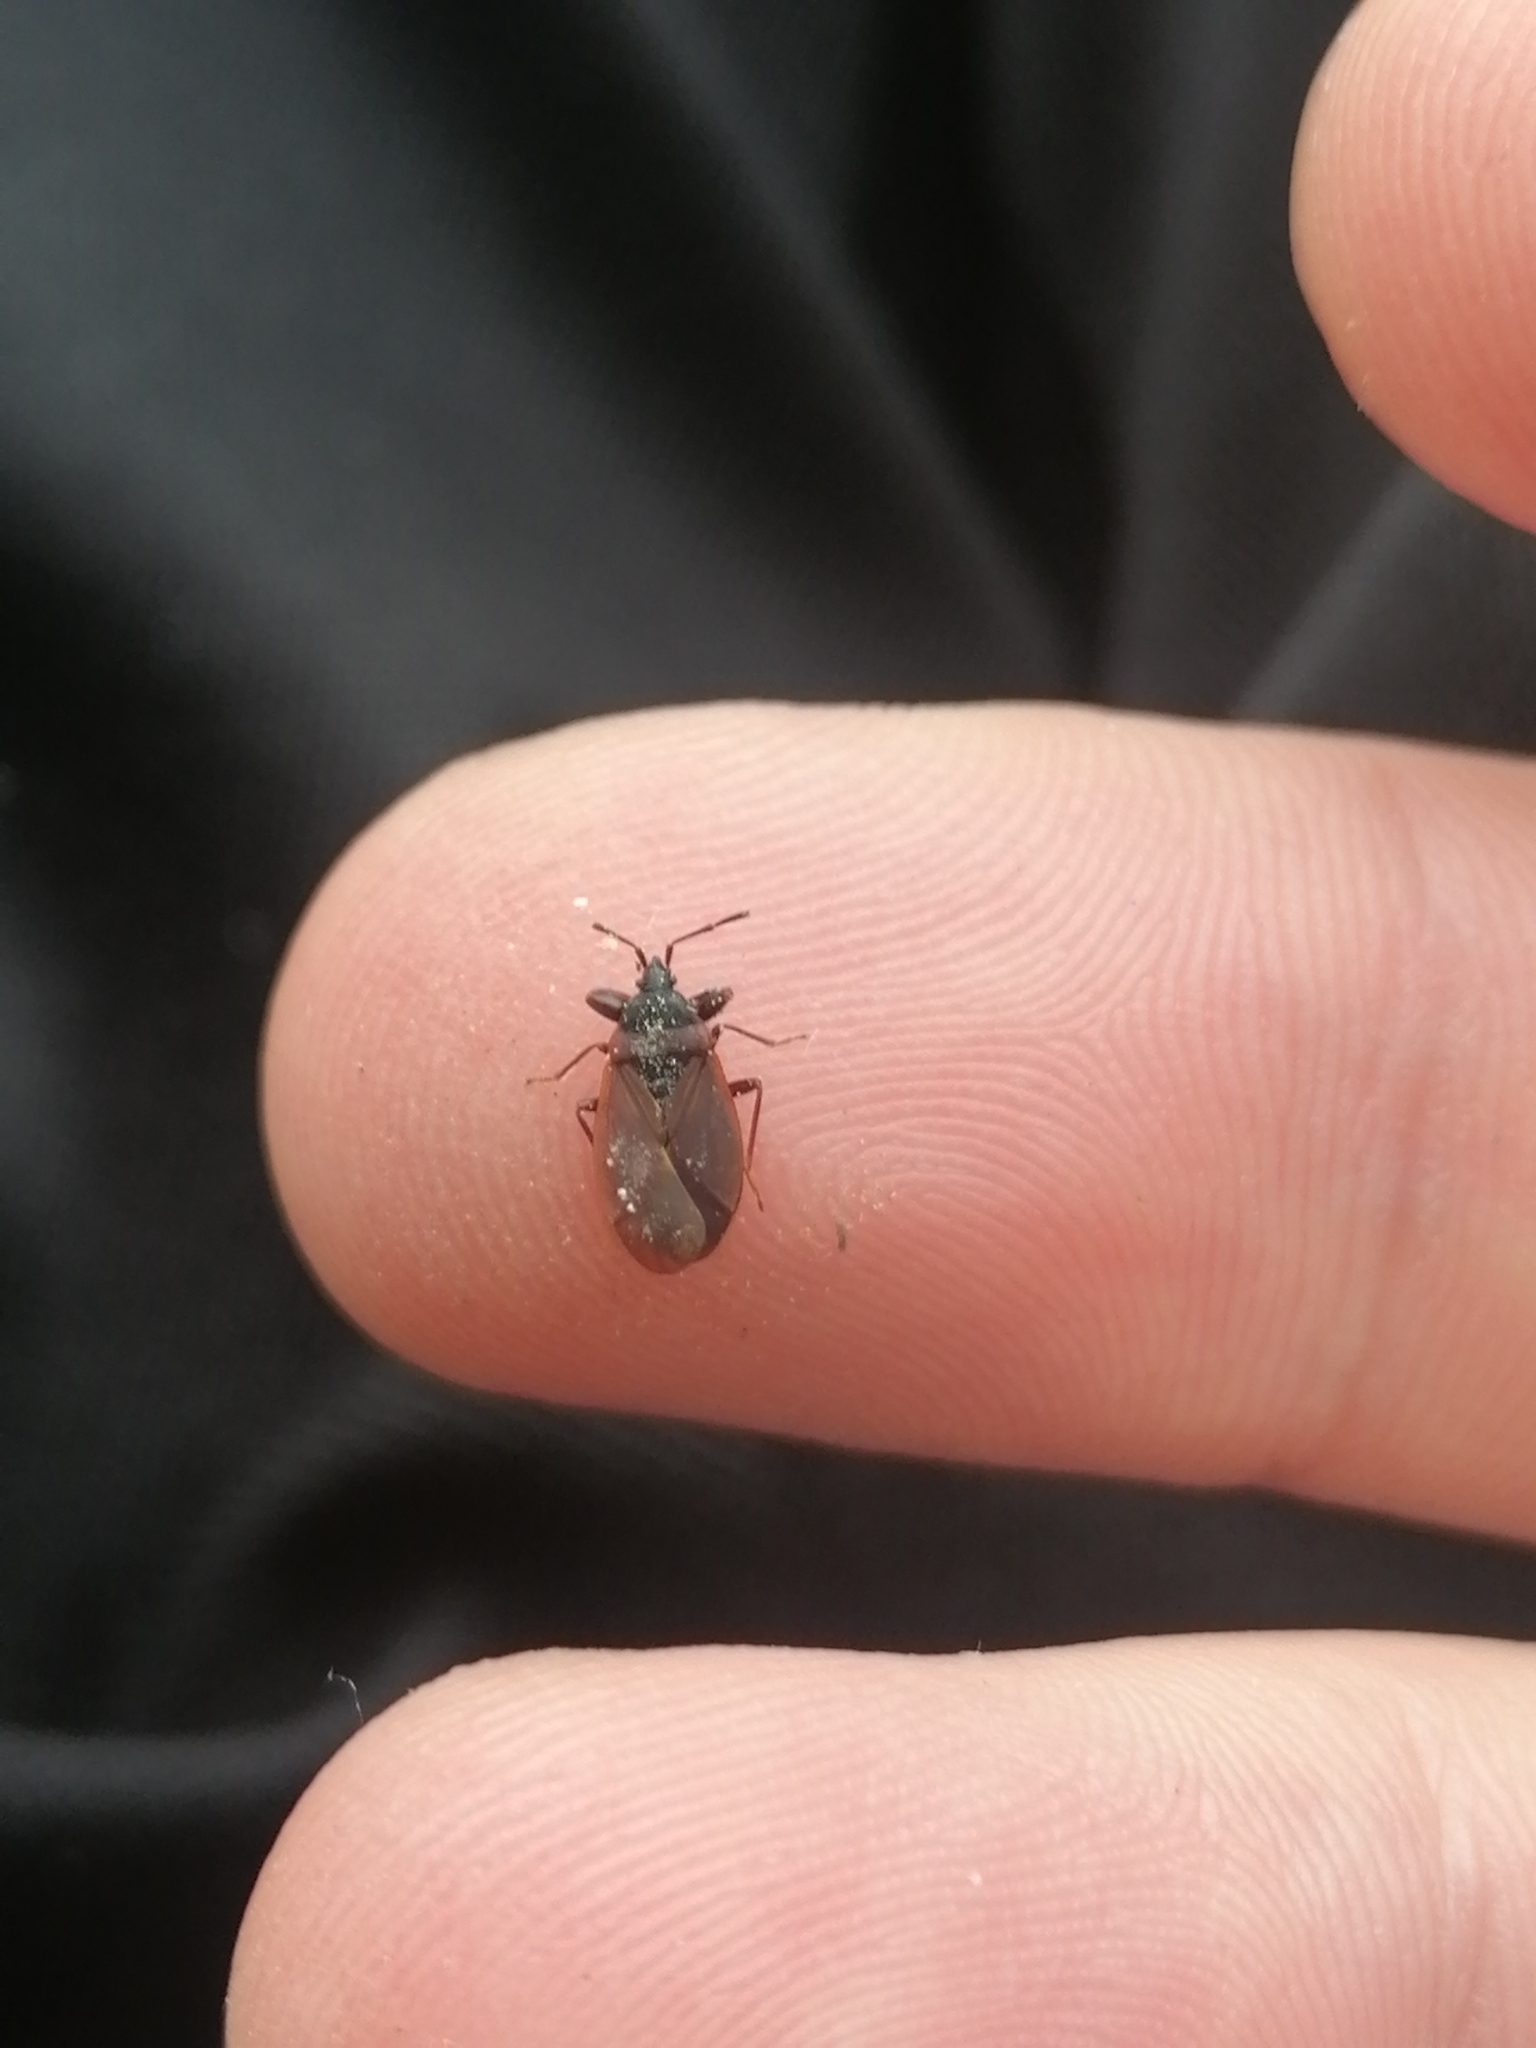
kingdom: Animalia
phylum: Arthropoda
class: Insecta
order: Hemiptera
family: Rhyparochromidae
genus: Gastrodes
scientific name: Gastrodes grossipes
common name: Pine cone bug
